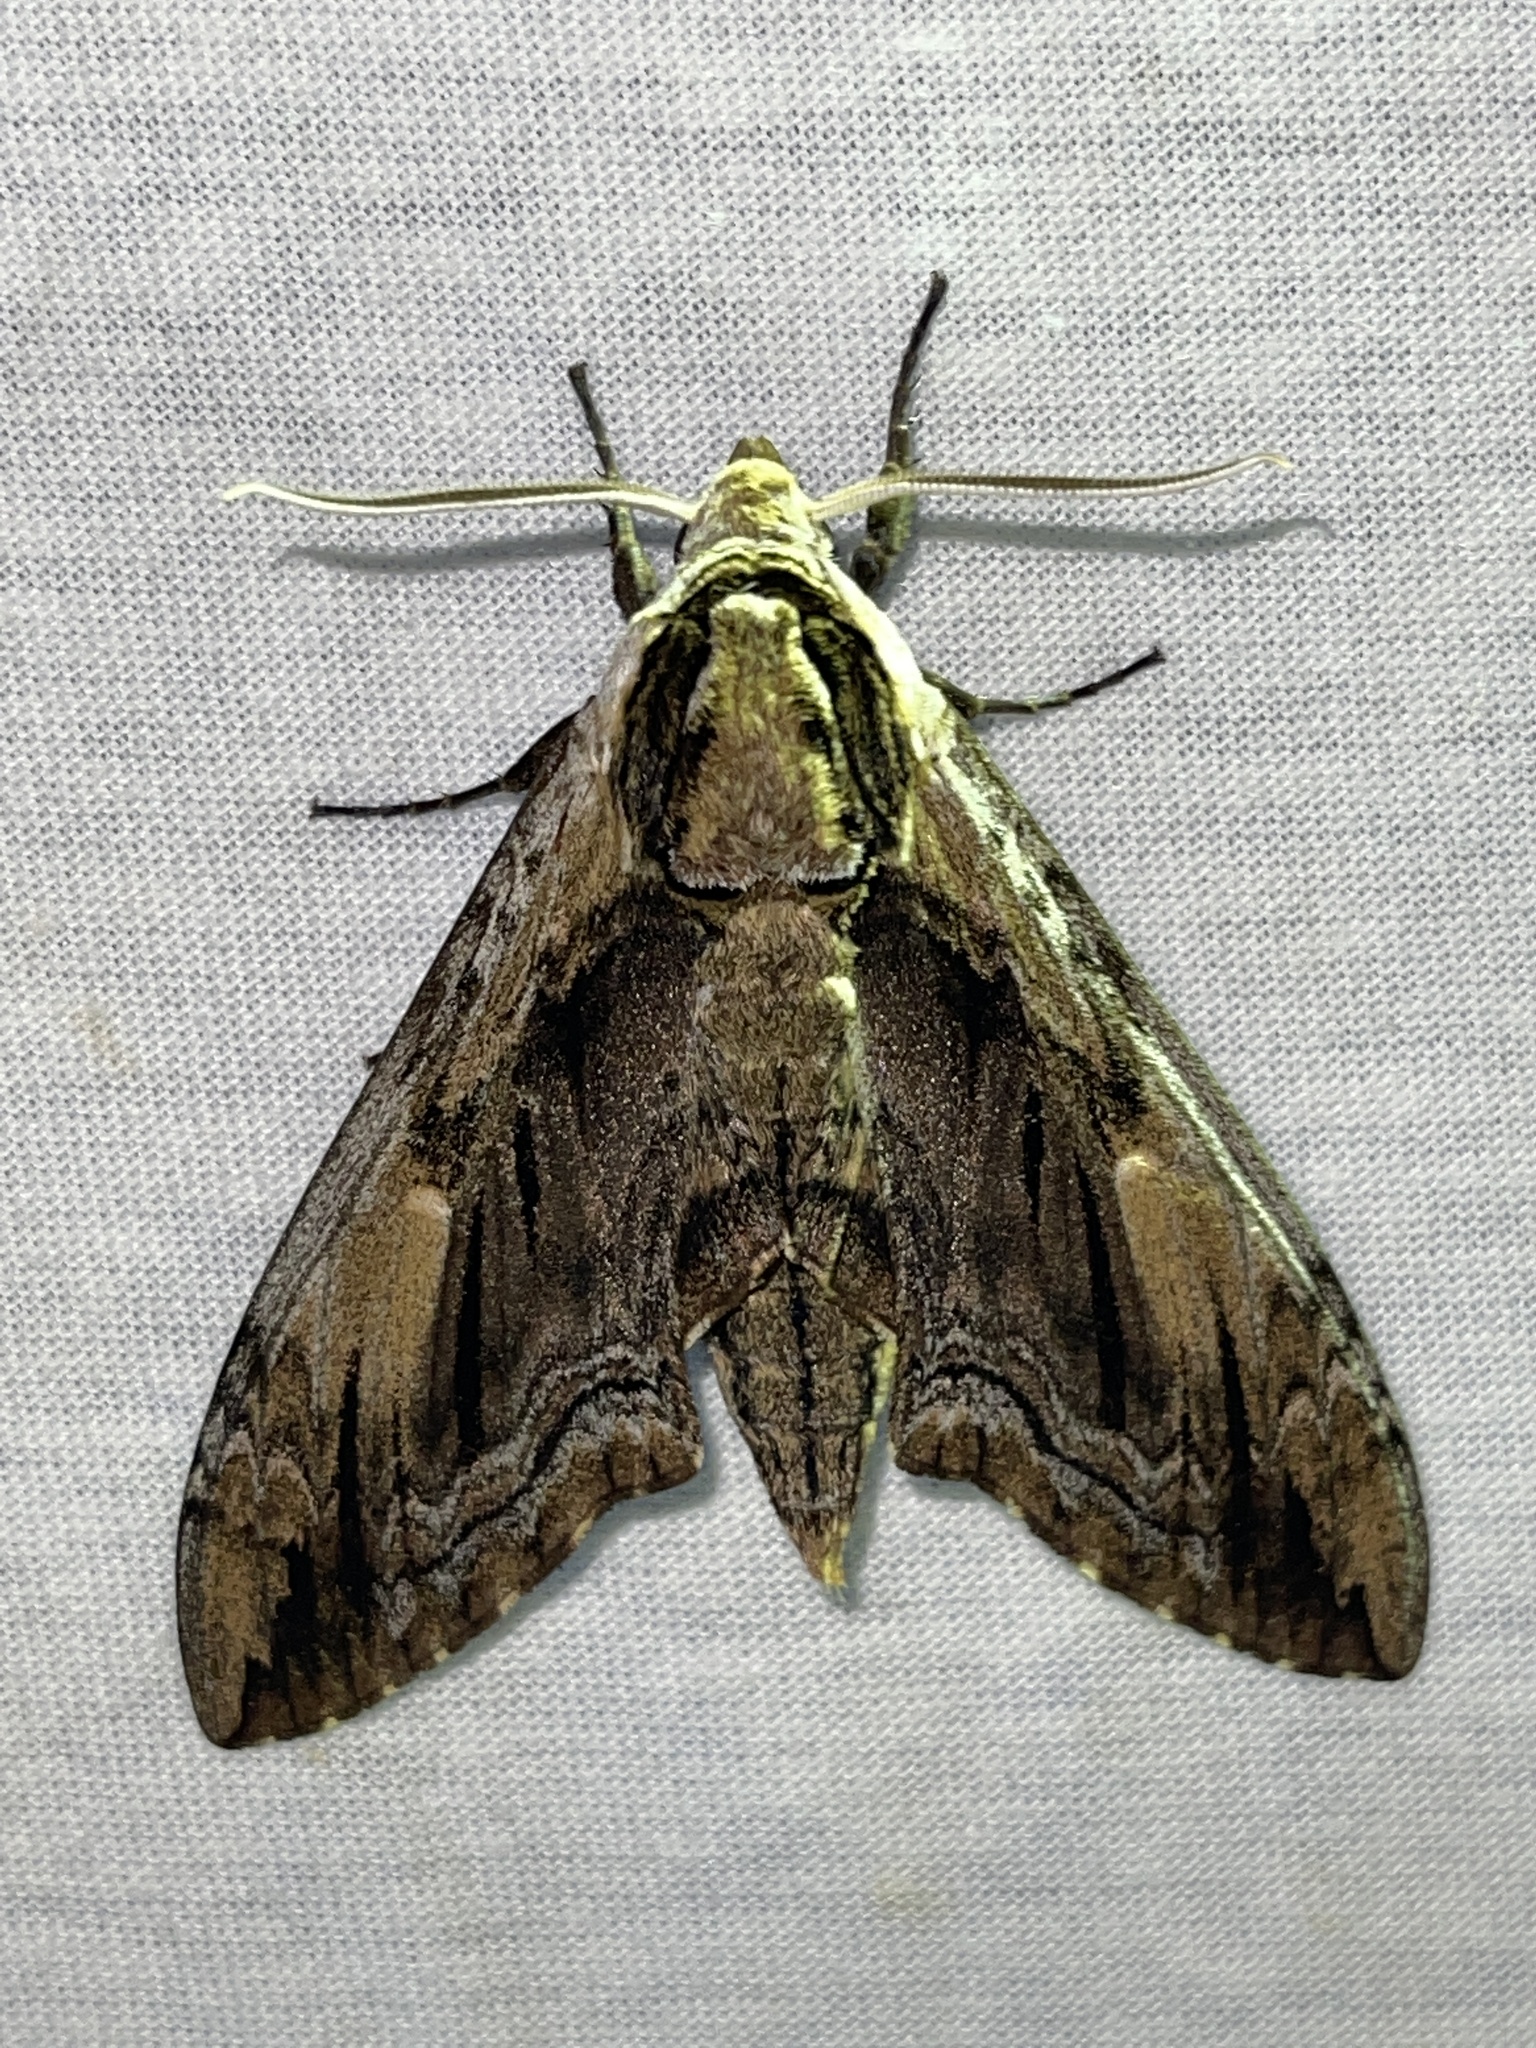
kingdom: Animalia
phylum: Arthropoda
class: Insecta
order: Lepidoptera
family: Sphingidae
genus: Ceratomia
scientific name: Ceratomia amyntor
